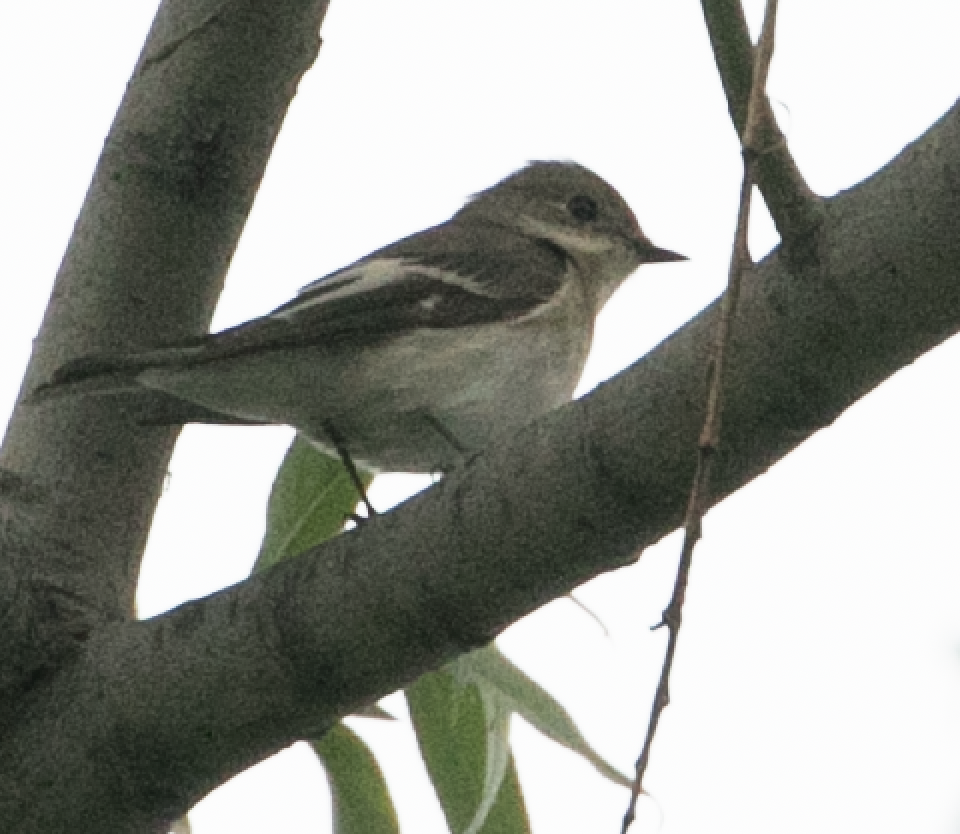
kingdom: Animalia
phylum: Chordata
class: Aves
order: Passeriformes
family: Muscicapidae
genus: Ficedula
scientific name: Ficedula hypoleuca
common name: European pied flycatcher
